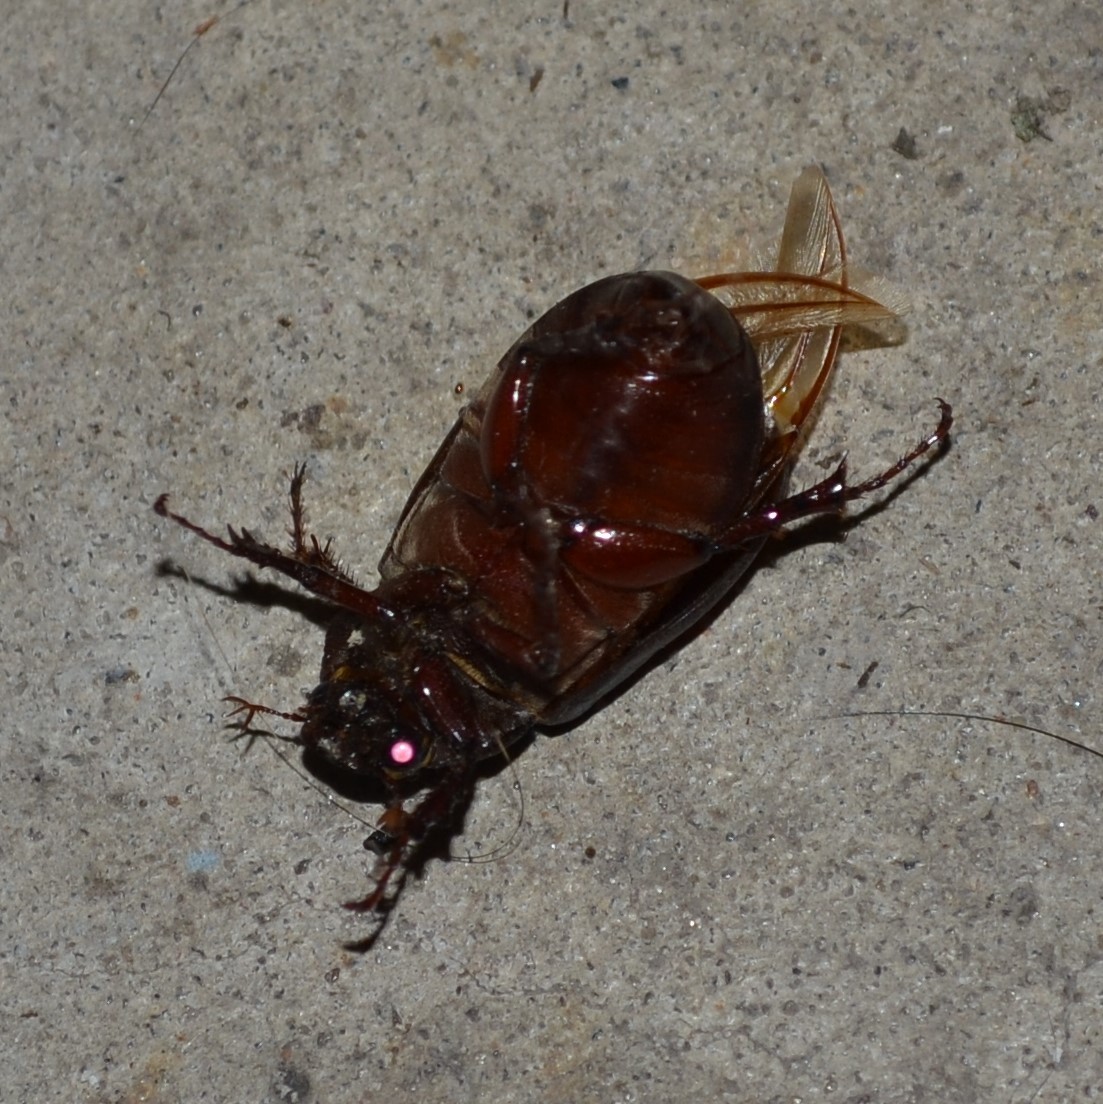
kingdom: Animalia
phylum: Arthropoda
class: Insecta
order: Coleoptera
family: Scarabaeidae
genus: Phyllophaga
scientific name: Phyllophaga prunina
